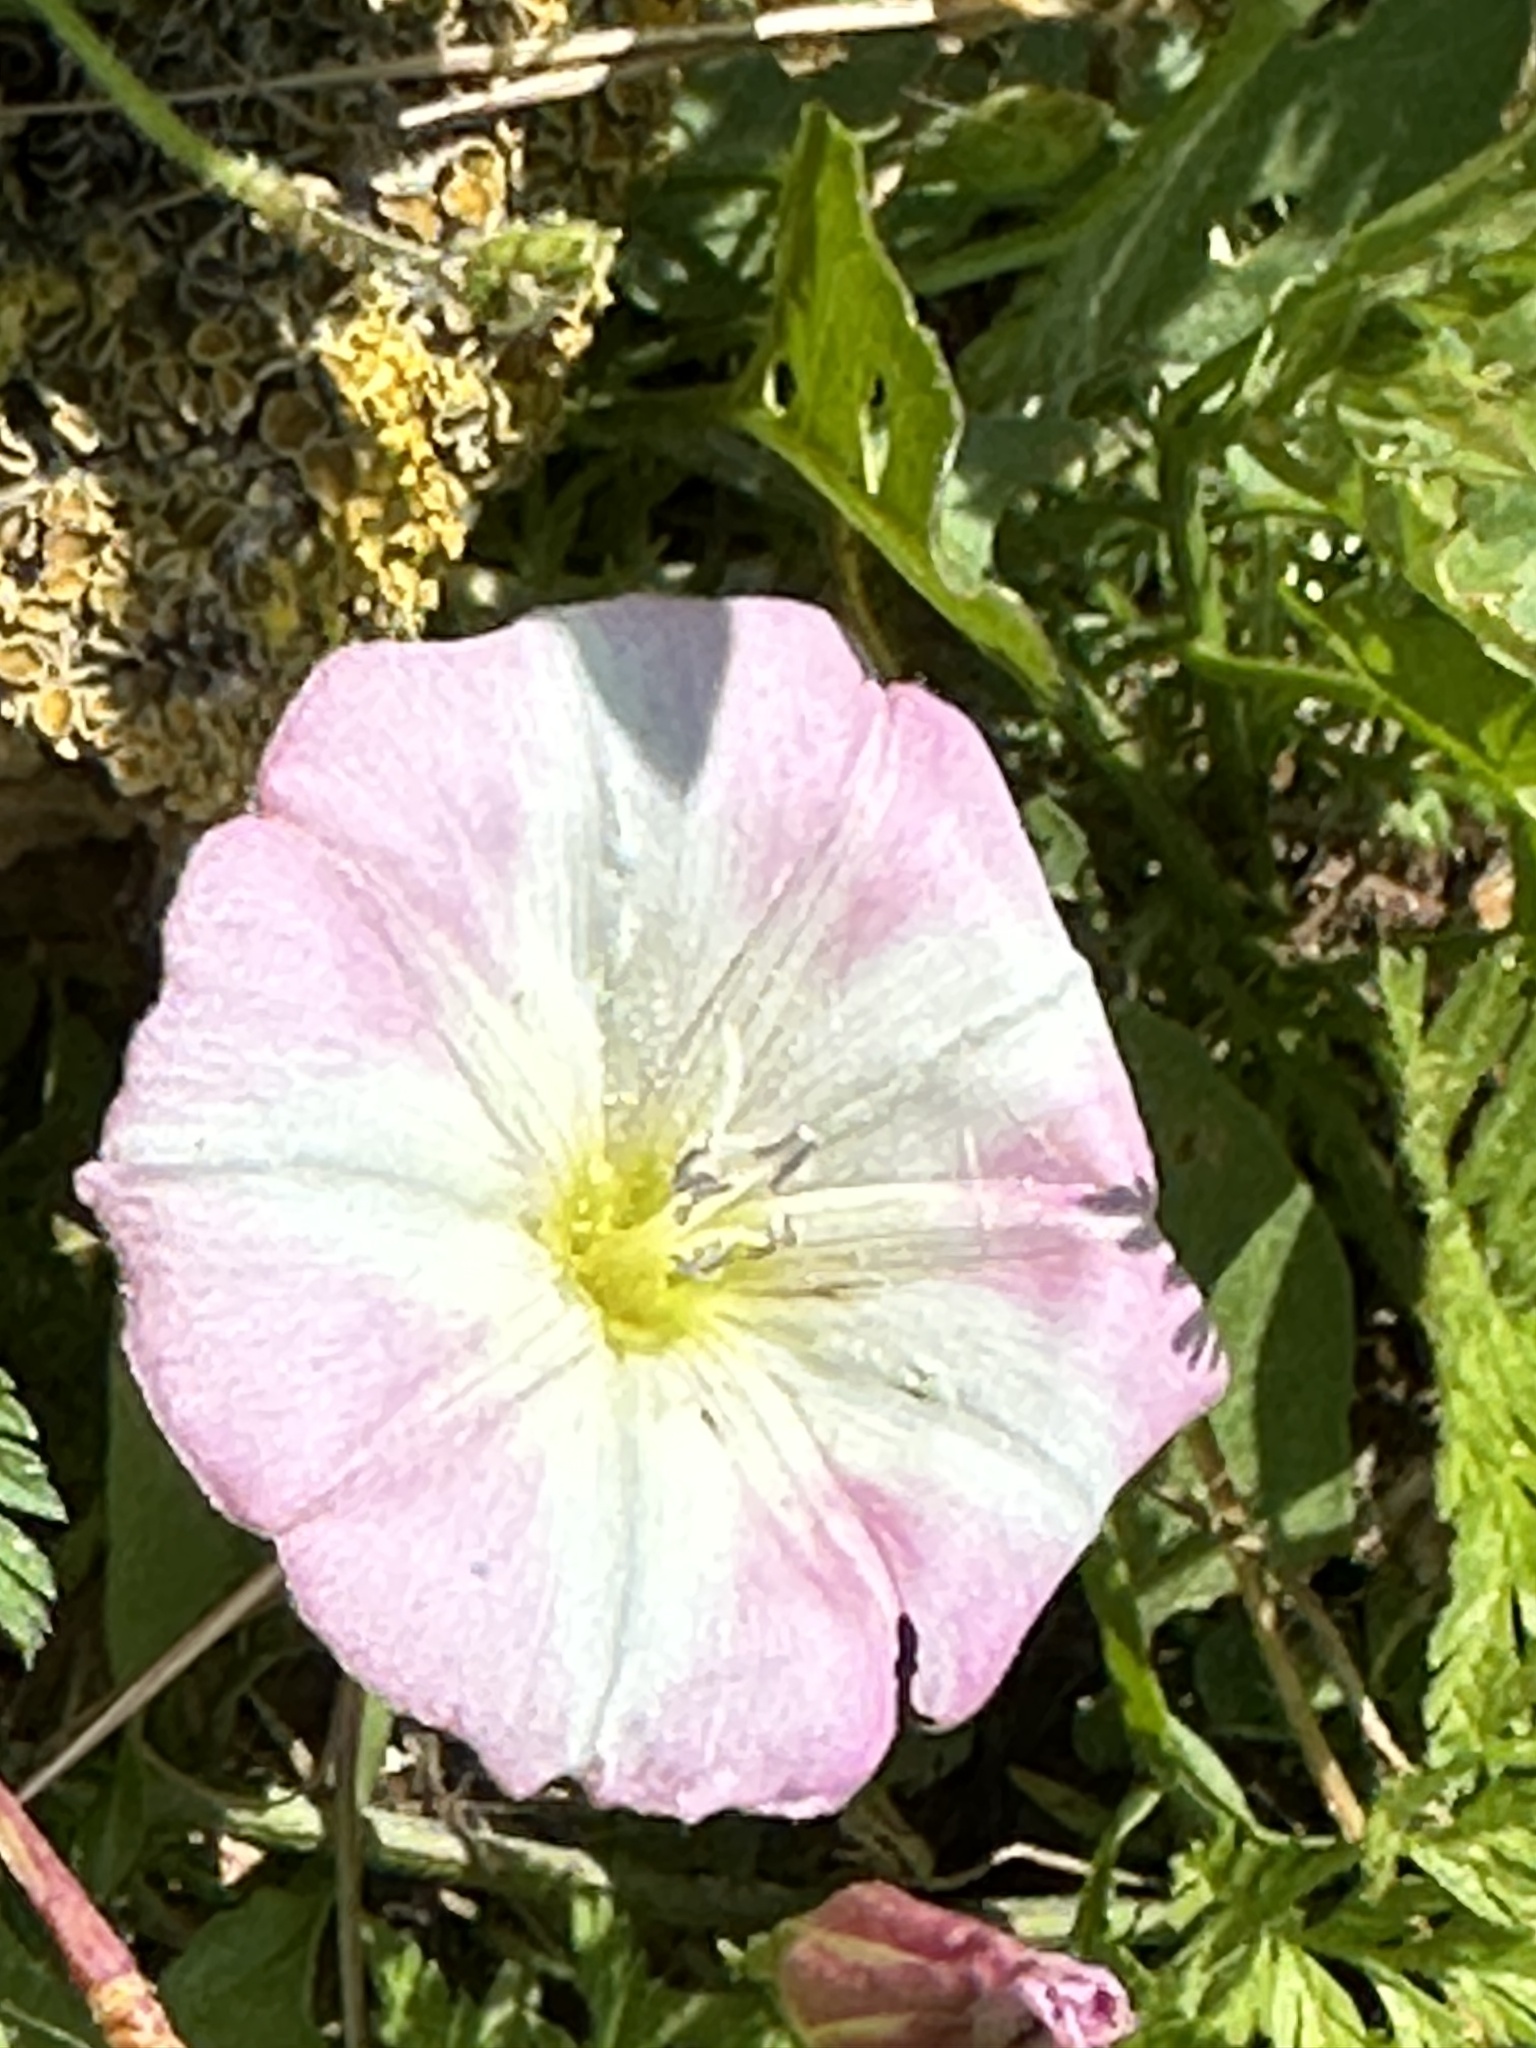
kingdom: Plantae
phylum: Tracheophyta
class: Magnoliopsida
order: Solanales
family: Convolvulaceae
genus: Convolvulus
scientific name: Convolvulus arvensis
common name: Field bindweed
